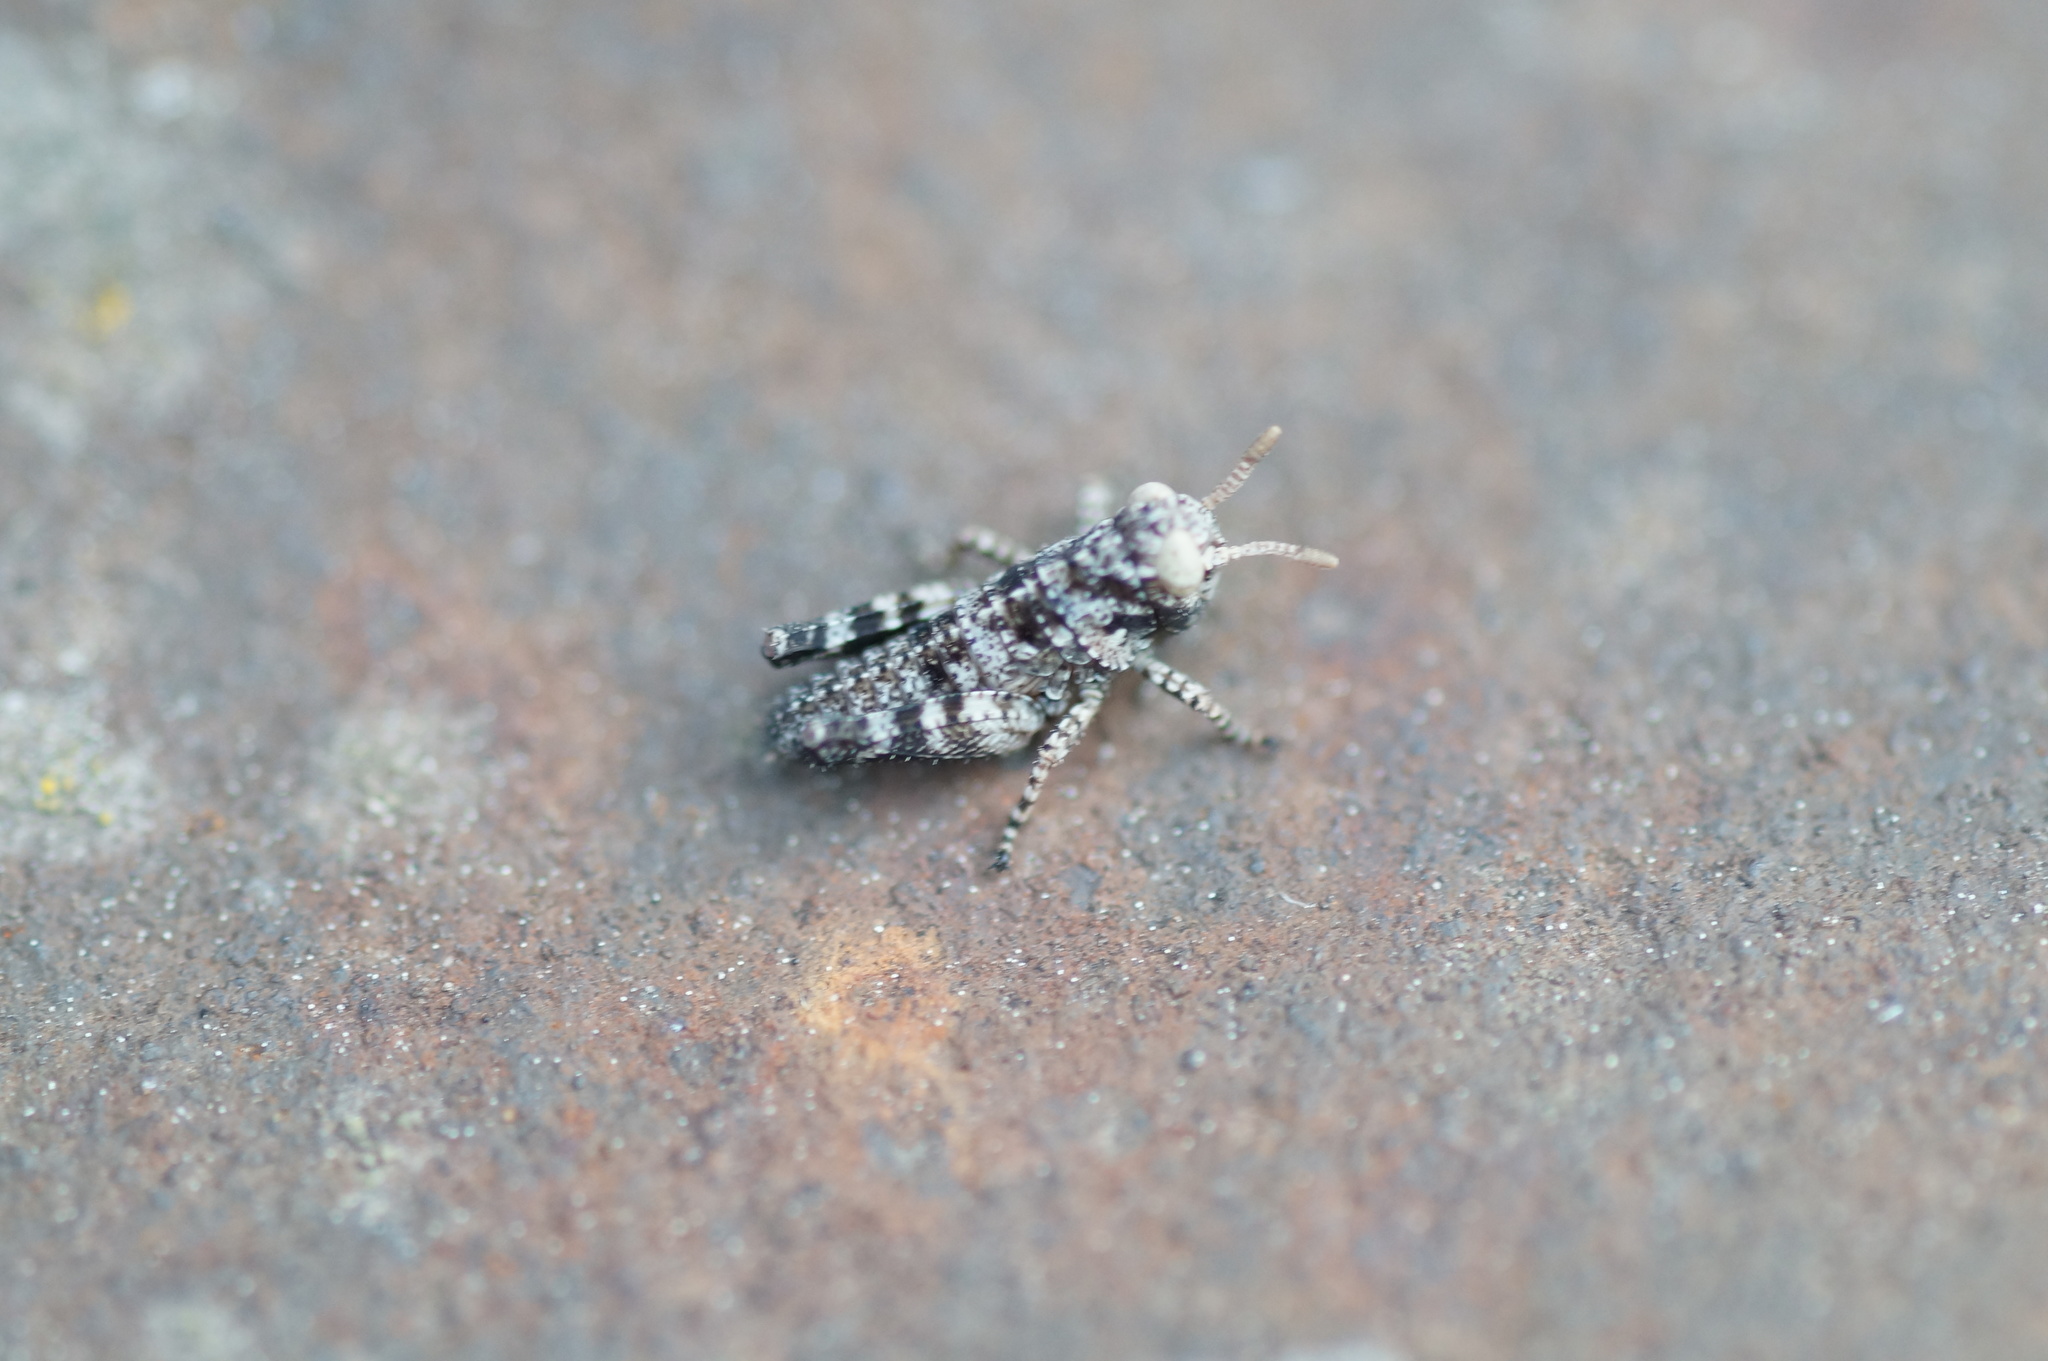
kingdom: Animalia
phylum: Arthropoda
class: Insecta
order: Orthoptera
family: Acrididae
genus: Oedipoda
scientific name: Oedipoda caerulescens
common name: Blue-winged grasshopper
